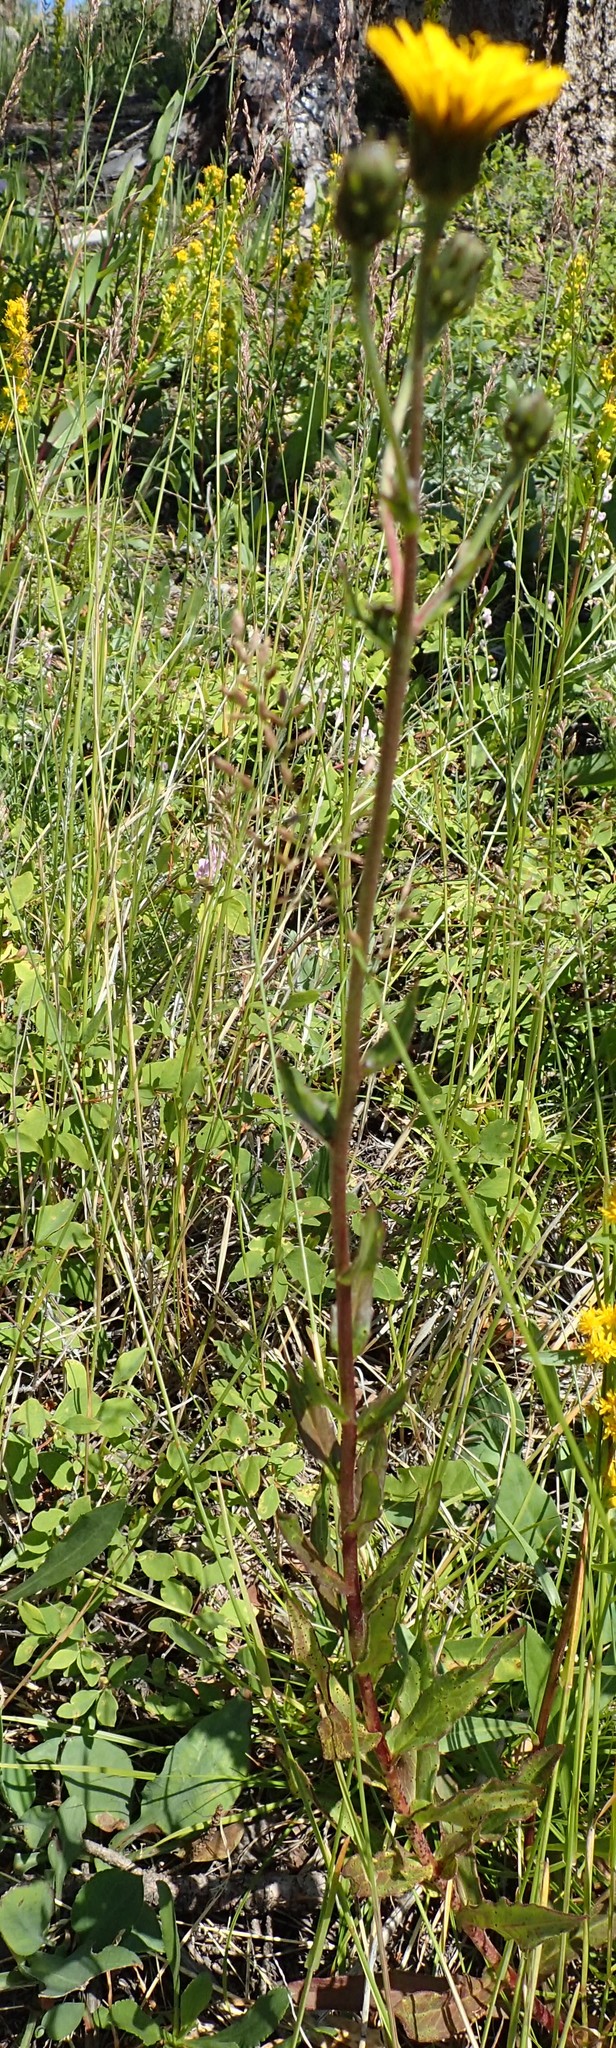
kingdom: Plantae
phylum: Tracheophyta
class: Magnoliopsida
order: Asterales
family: Asteraceae
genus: Hieracium
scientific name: Hieracium umbellatum
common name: Northern hawkweed
